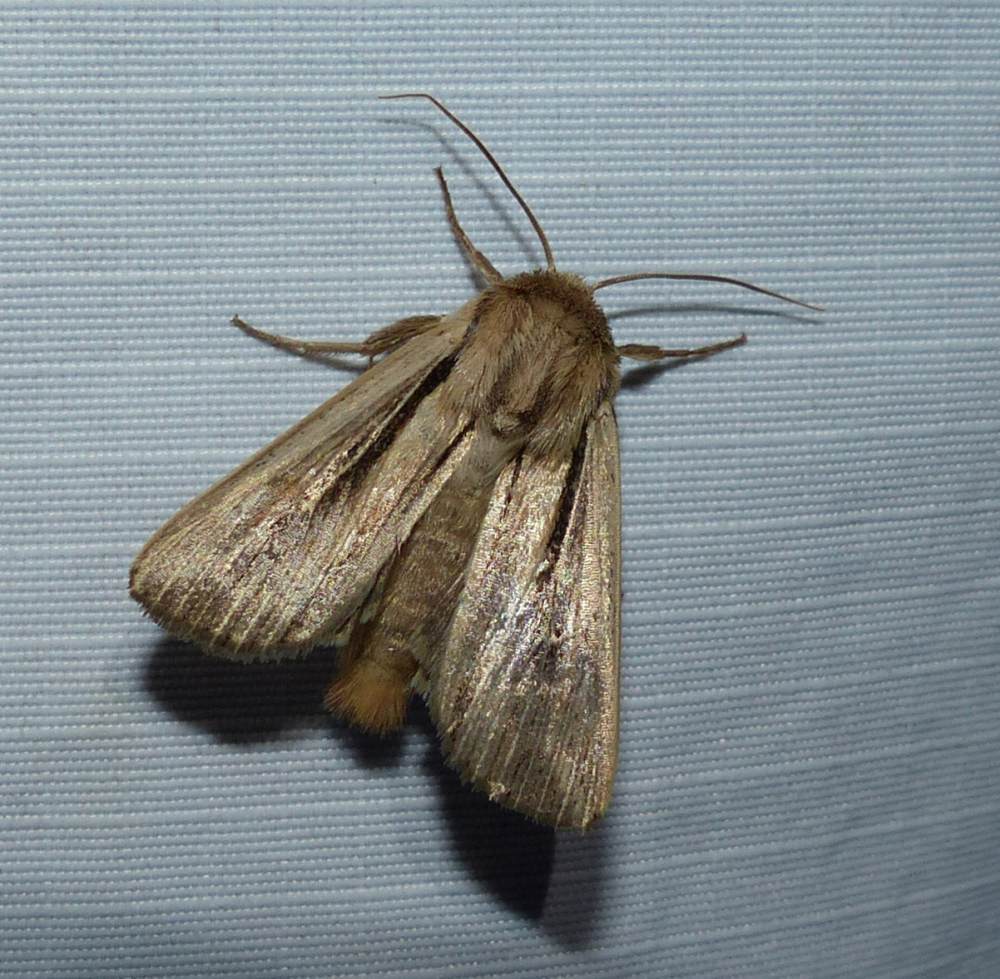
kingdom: Animalia
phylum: Arthropoda
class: Insecta
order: Lepidoptera
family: Noctuidae
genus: Leucania
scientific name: Leucania commoides
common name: Two-lined wainscot
